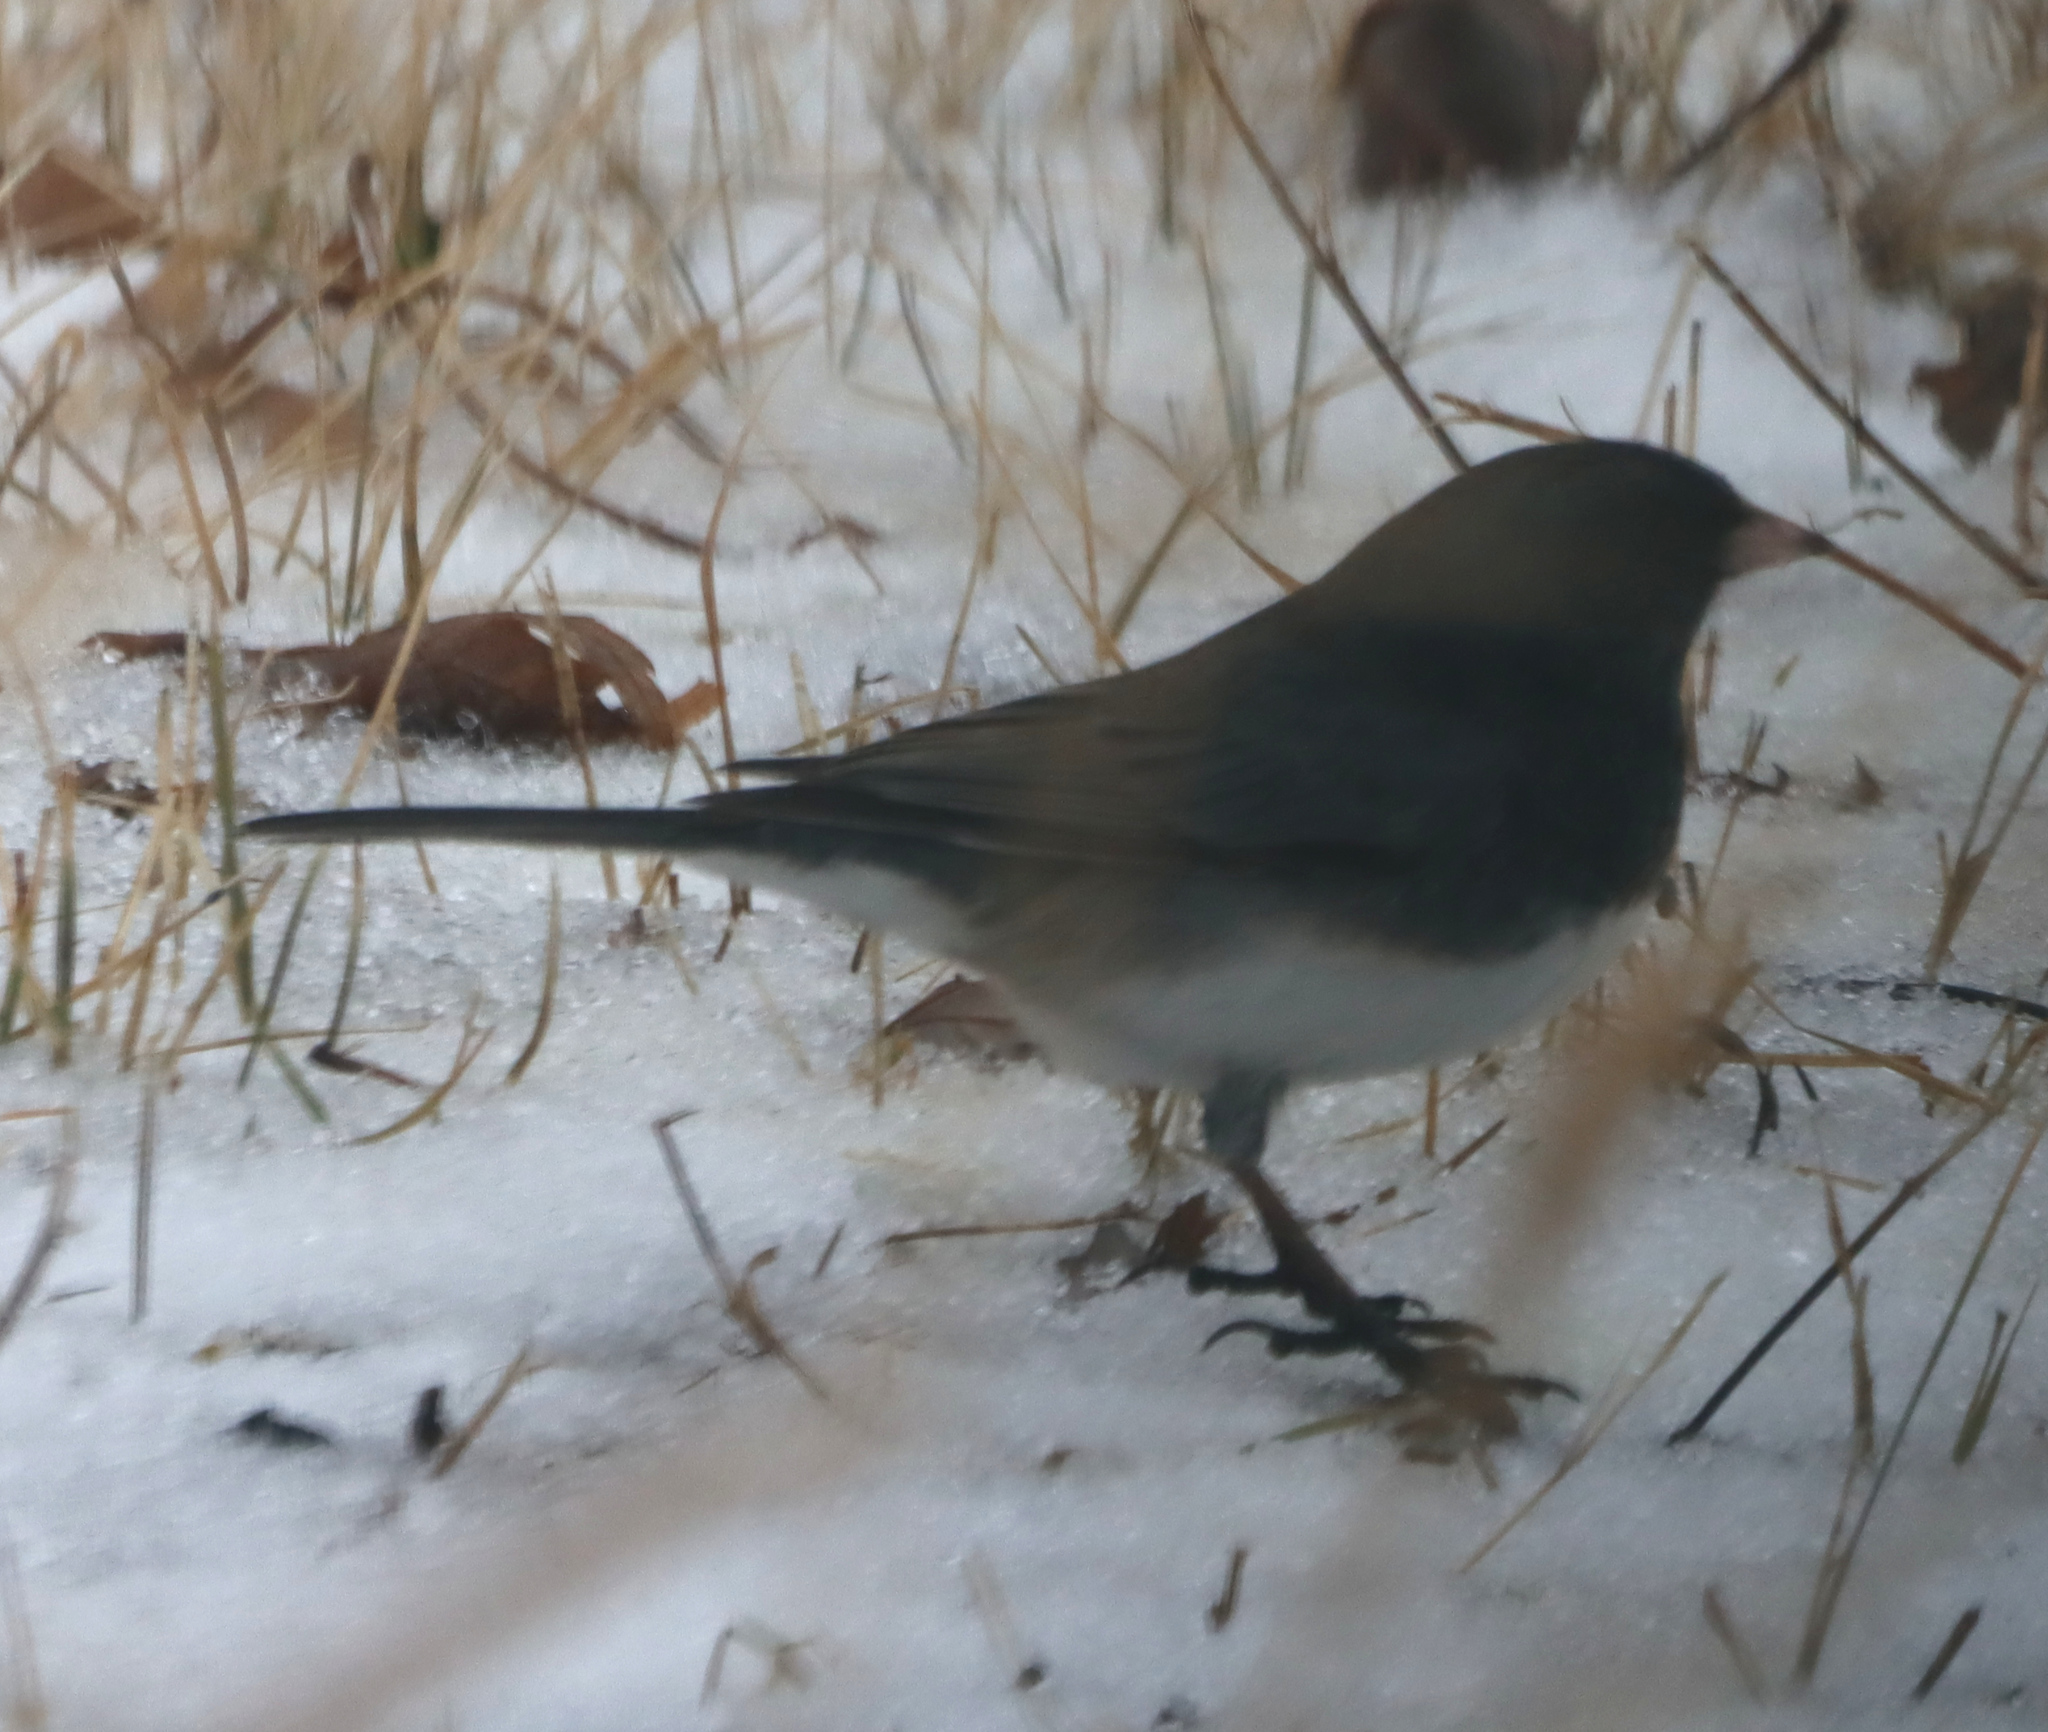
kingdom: Animalia
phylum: Chordata
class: Aves
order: Passeriformes
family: Passerellidae
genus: Junco
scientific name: Junco hyemalis
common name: Dark-eyed junco
